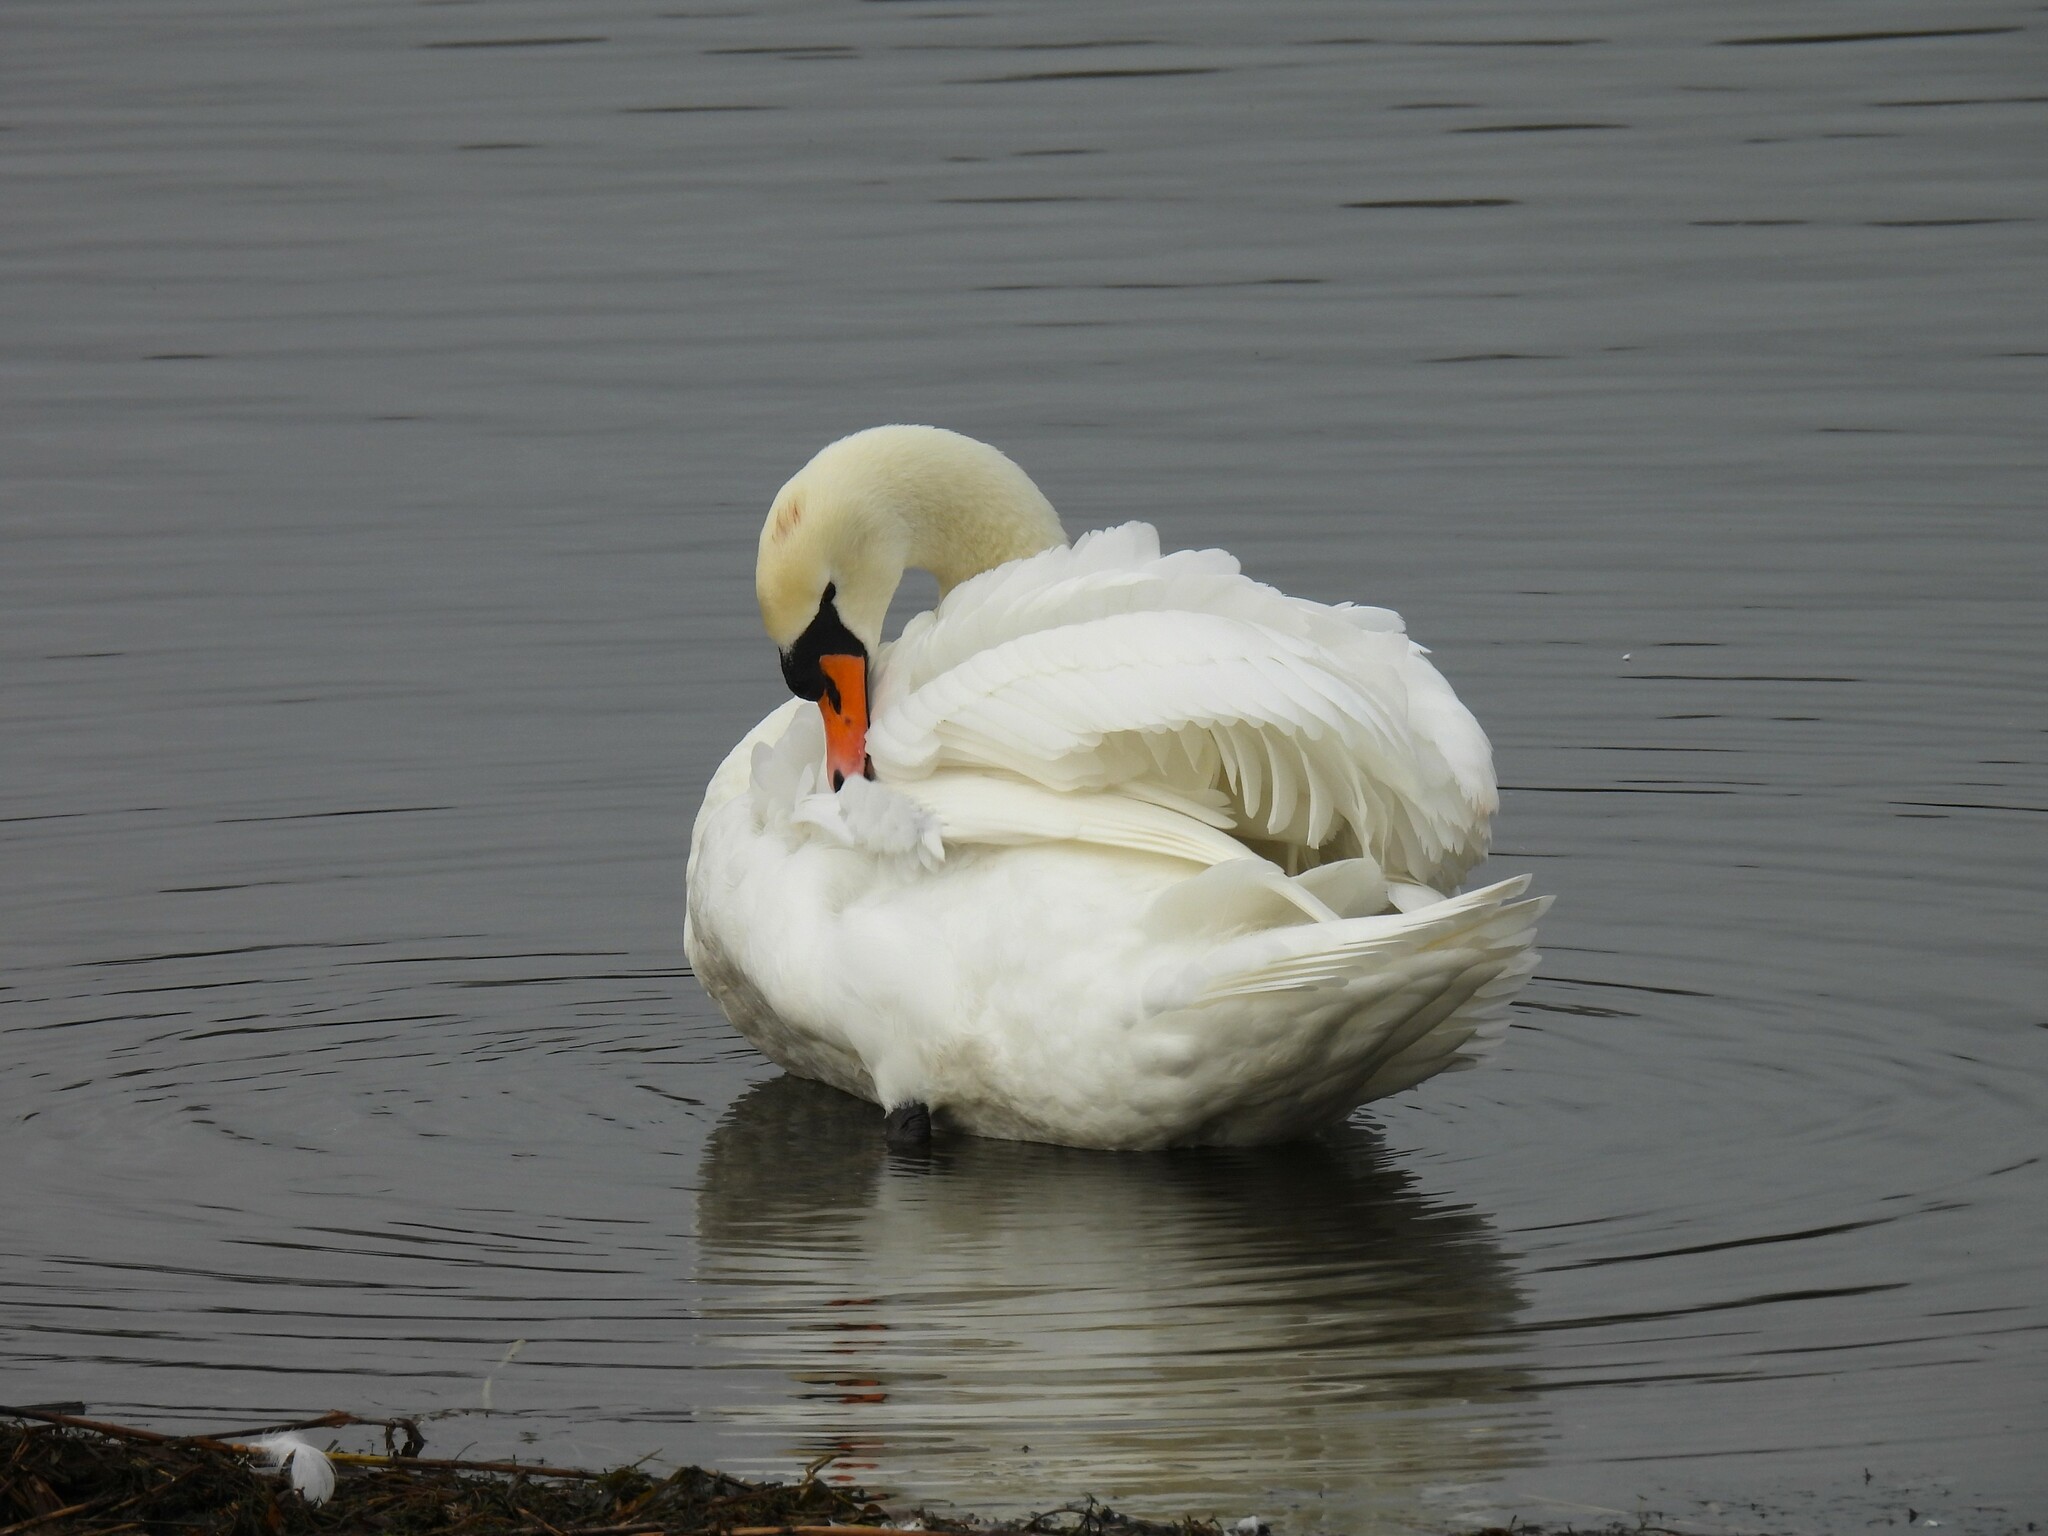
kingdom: Animalia
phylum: Chordata
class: Aves
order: Anseriformes
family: Anatidae
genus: Cygnus
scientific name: Cygnus olor
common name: Mute swan
